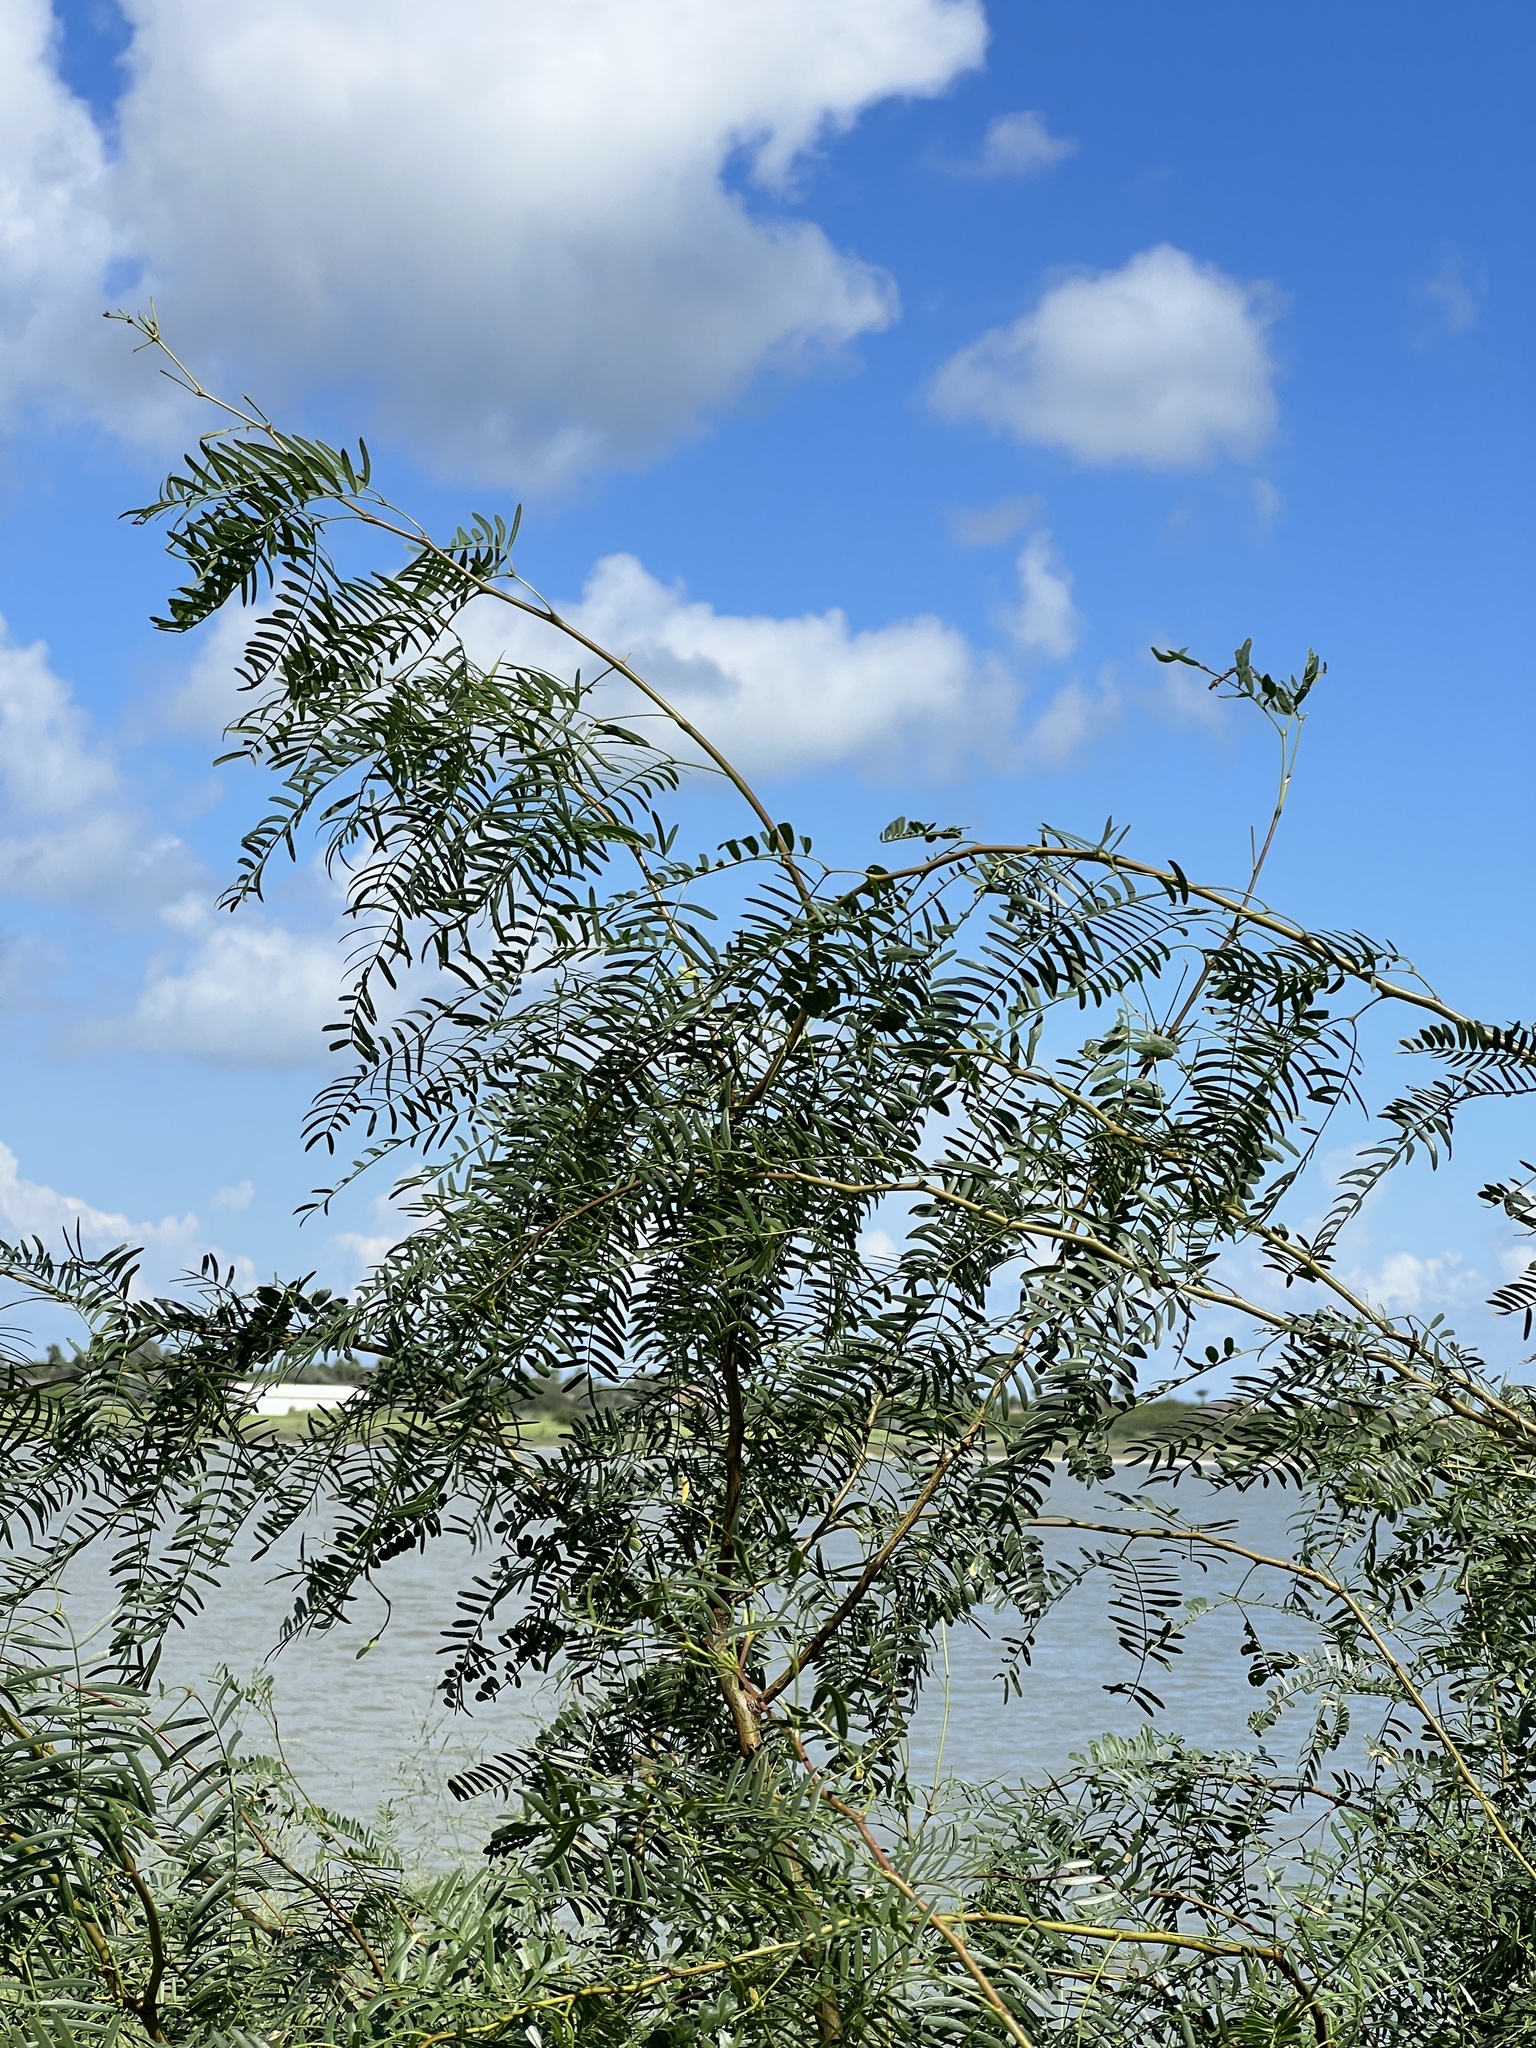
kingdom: Plantae
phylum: Tracheophyta
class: Magnoliopsida
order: Fabales
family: Fabaceae
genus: Prosopis
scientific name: Prosopis glandulosa
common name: Honey mesquite
